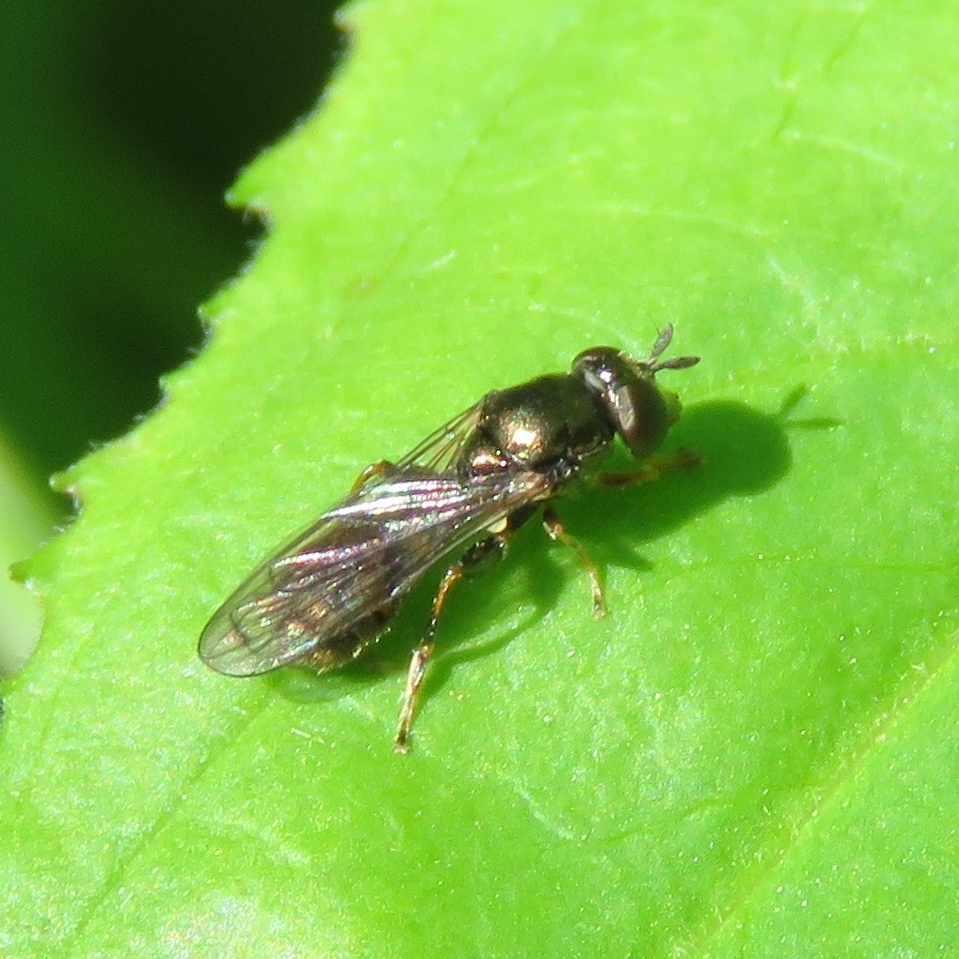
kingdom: Animalia
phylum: Arthropoda
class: Insecta
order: Diptera
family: Syrphidae
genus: Neoascia
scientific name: Neoascia
